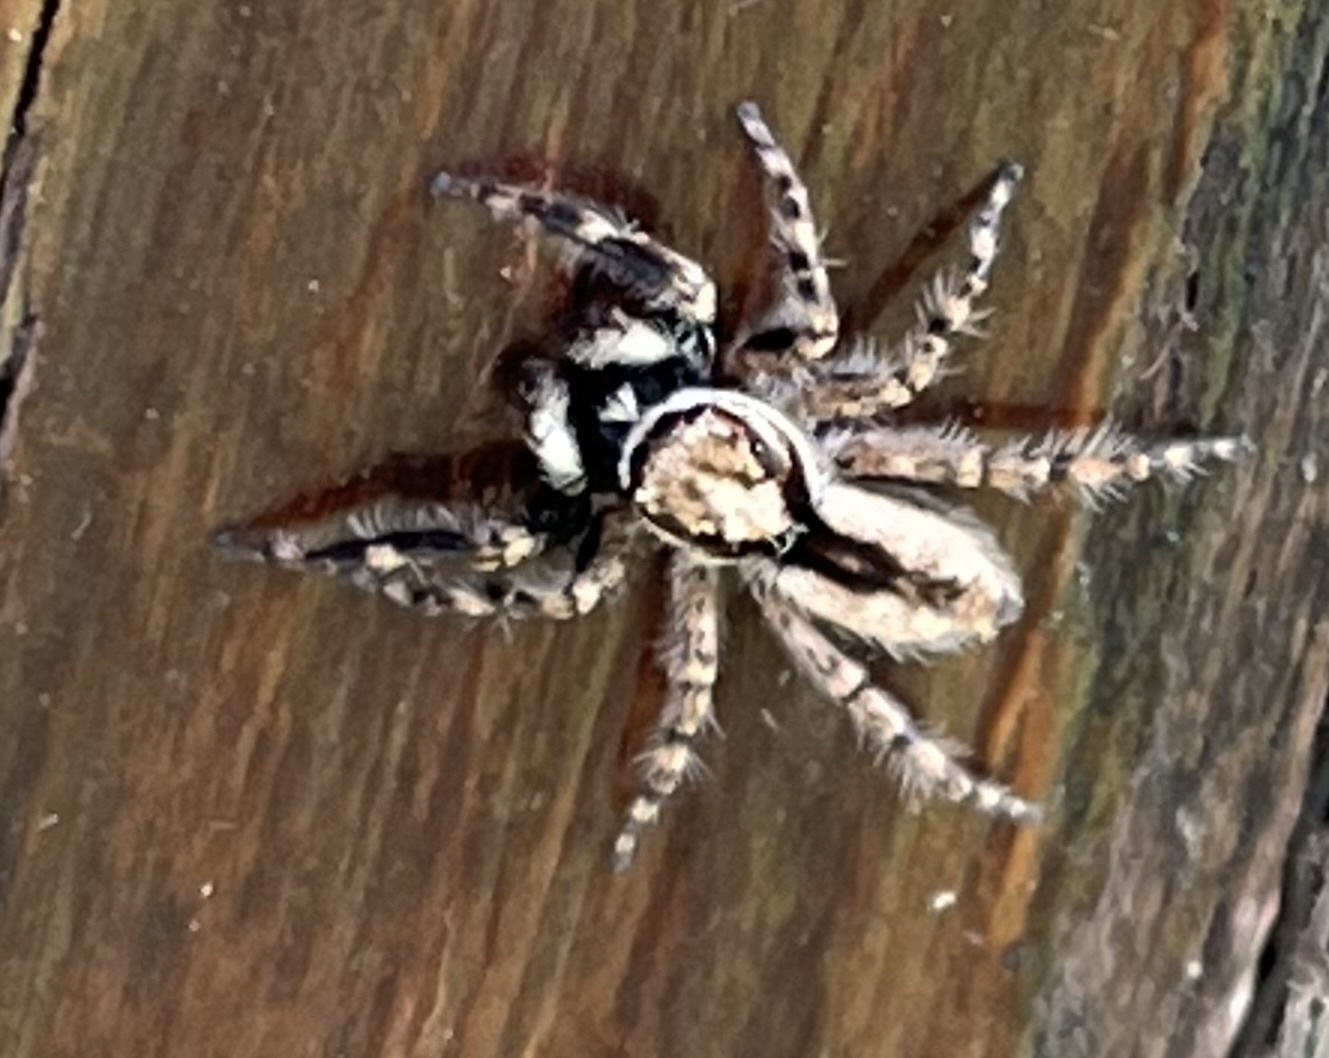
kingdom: Animalia
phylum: Arthropoda
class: Arachnida
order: Araneae
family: Salticidae
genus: Menemerus
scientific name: Menemerus bivittatus
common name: Gray wall jumper
